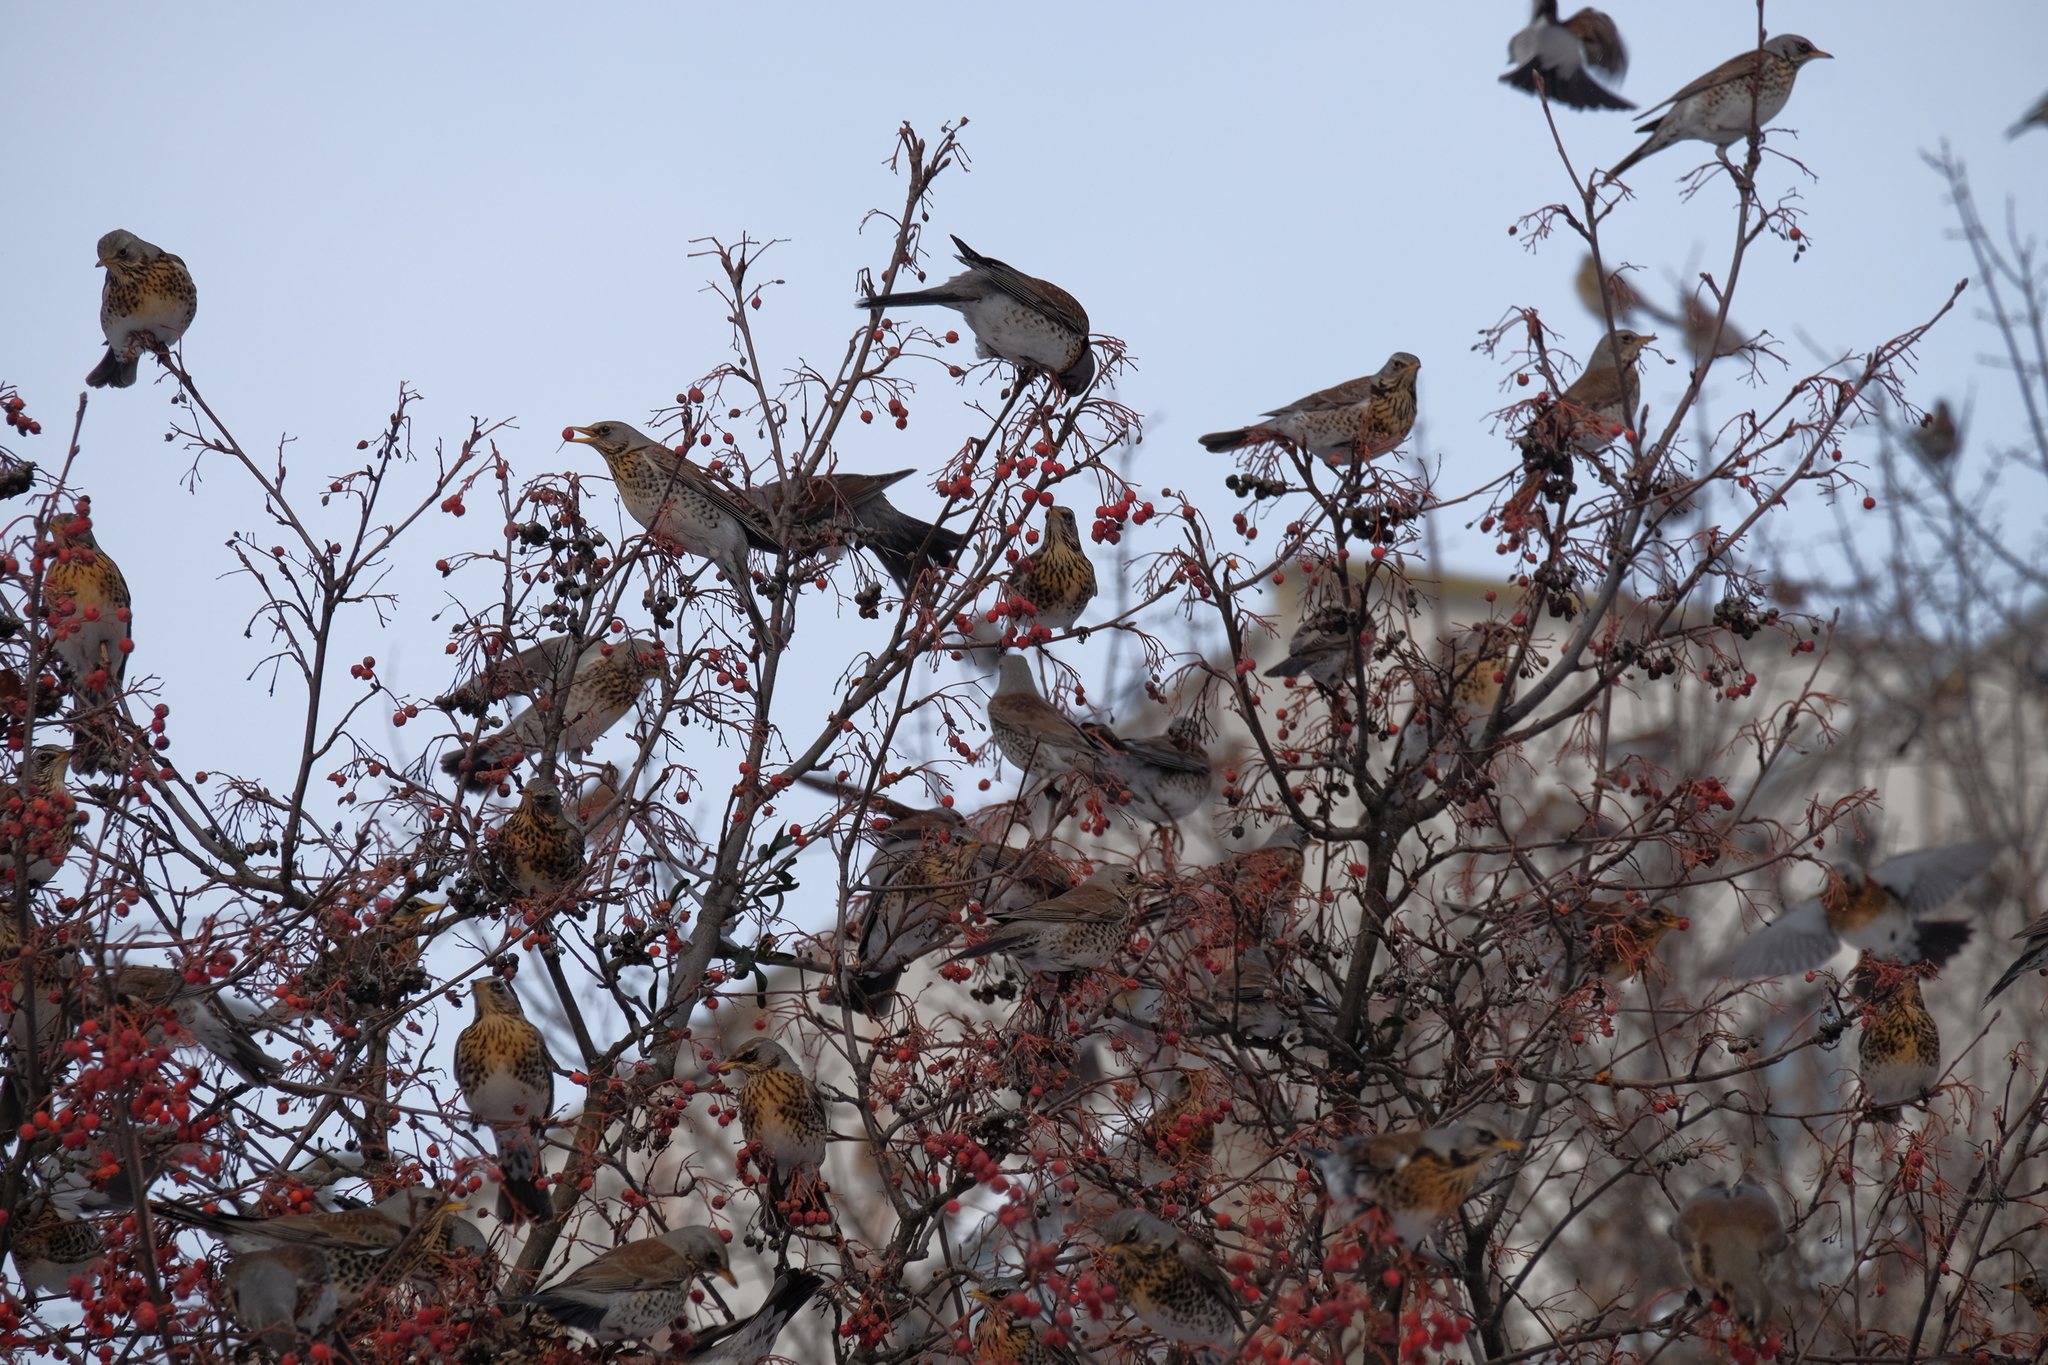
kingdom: Animalia
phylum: Chordata
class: Aves
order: Passeriformes
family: Turdidae
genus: Turdus
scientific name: Turdus pilaris
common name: Fieldfare
